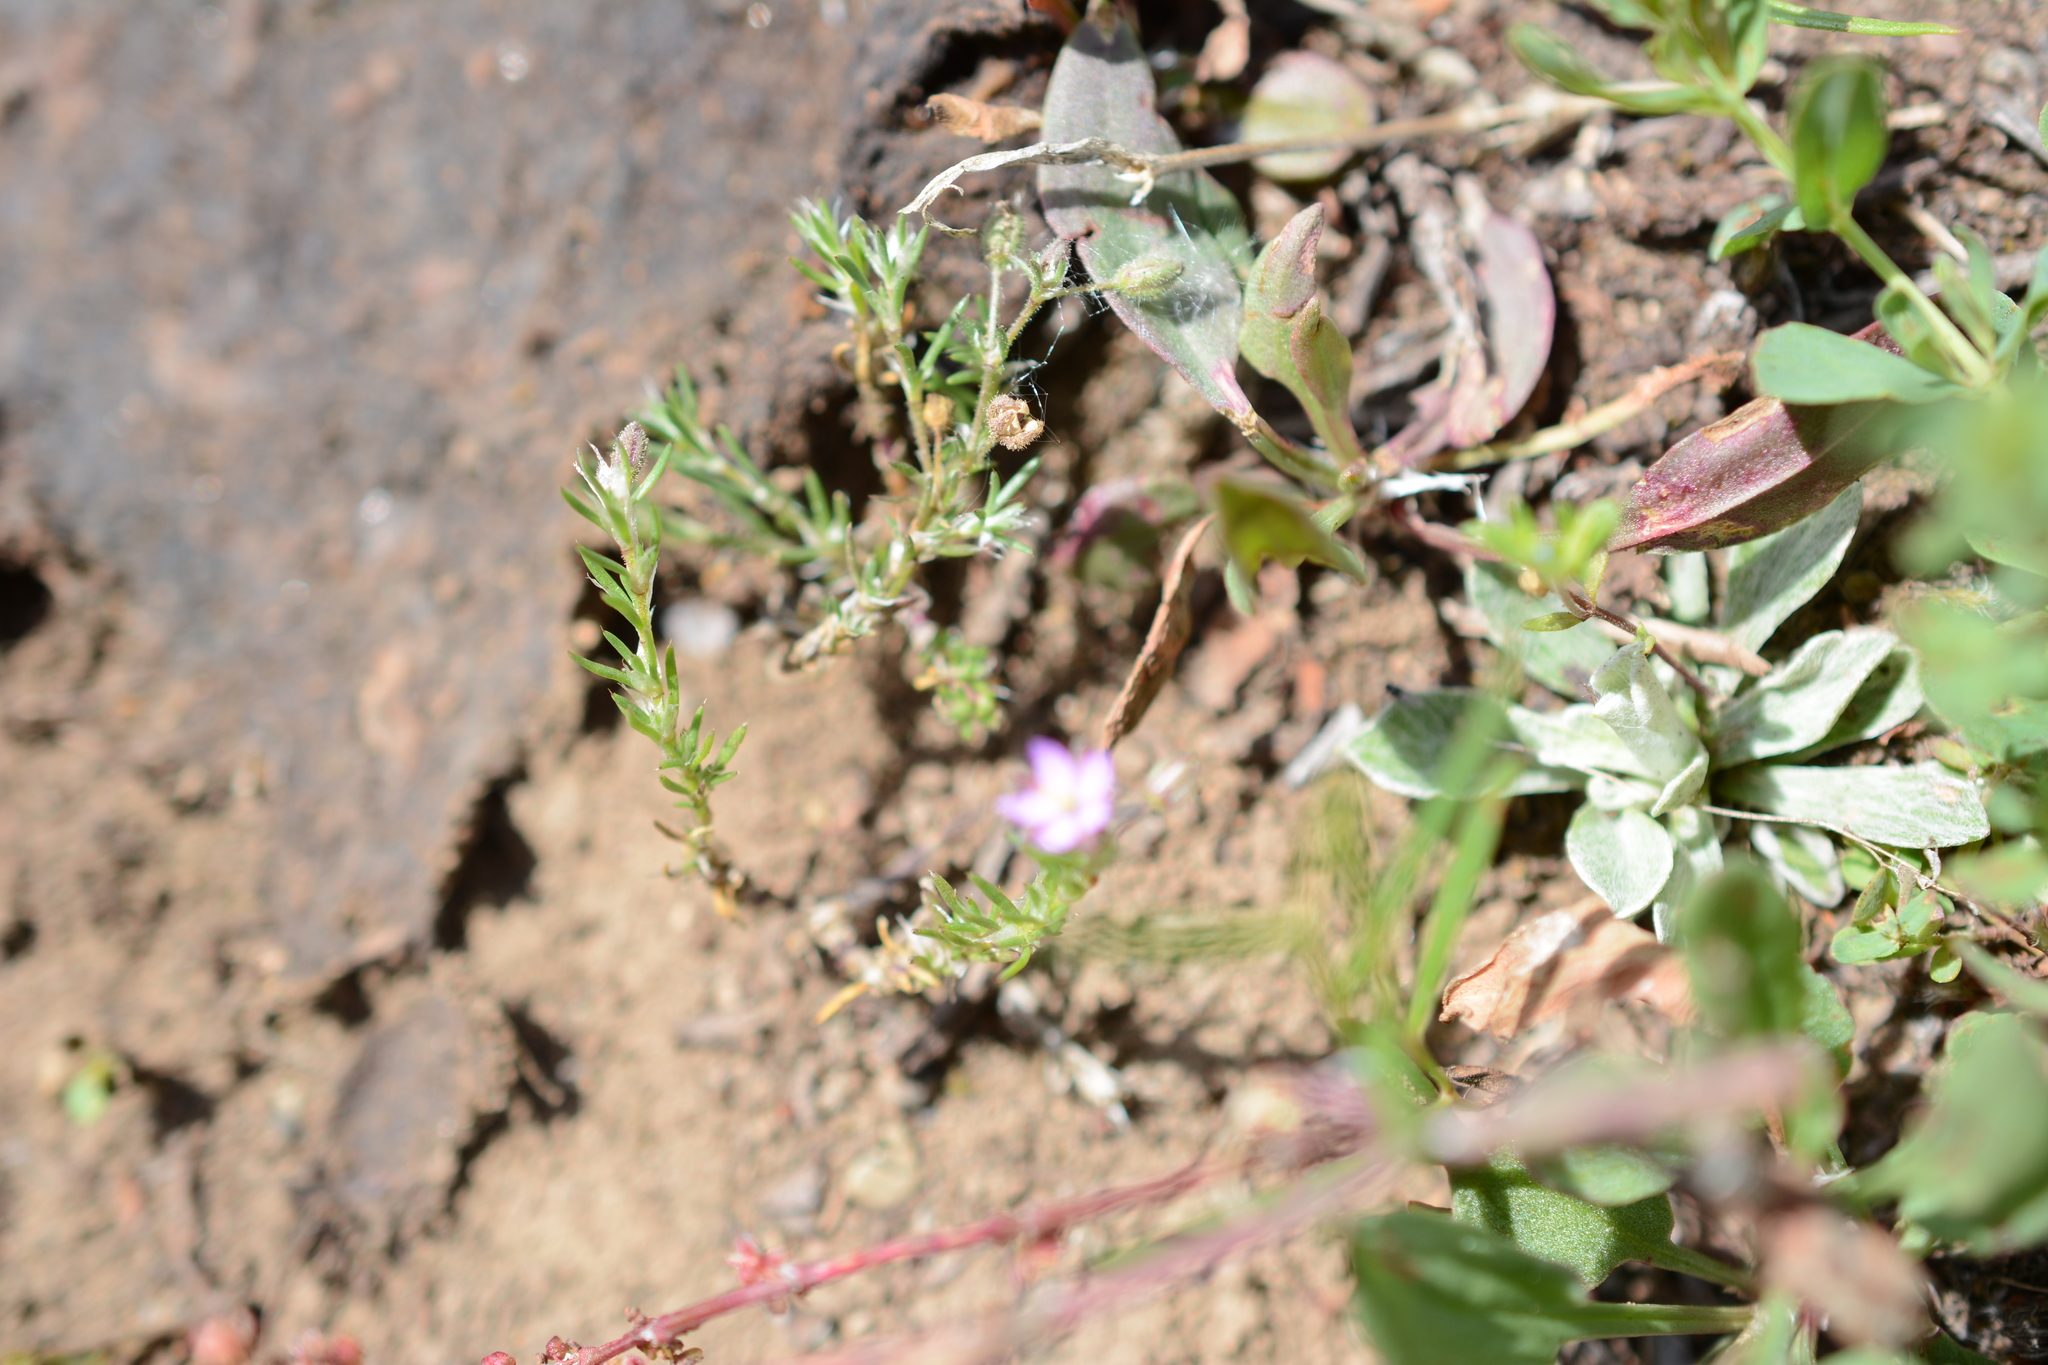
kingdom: Plantae
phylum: Tracheophyta
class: Magnoliopsida
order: Caryophyllales
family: Caryophyllaceae
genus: Spergularia
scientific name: Spergularia rubra
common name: Red sand-spurrey
